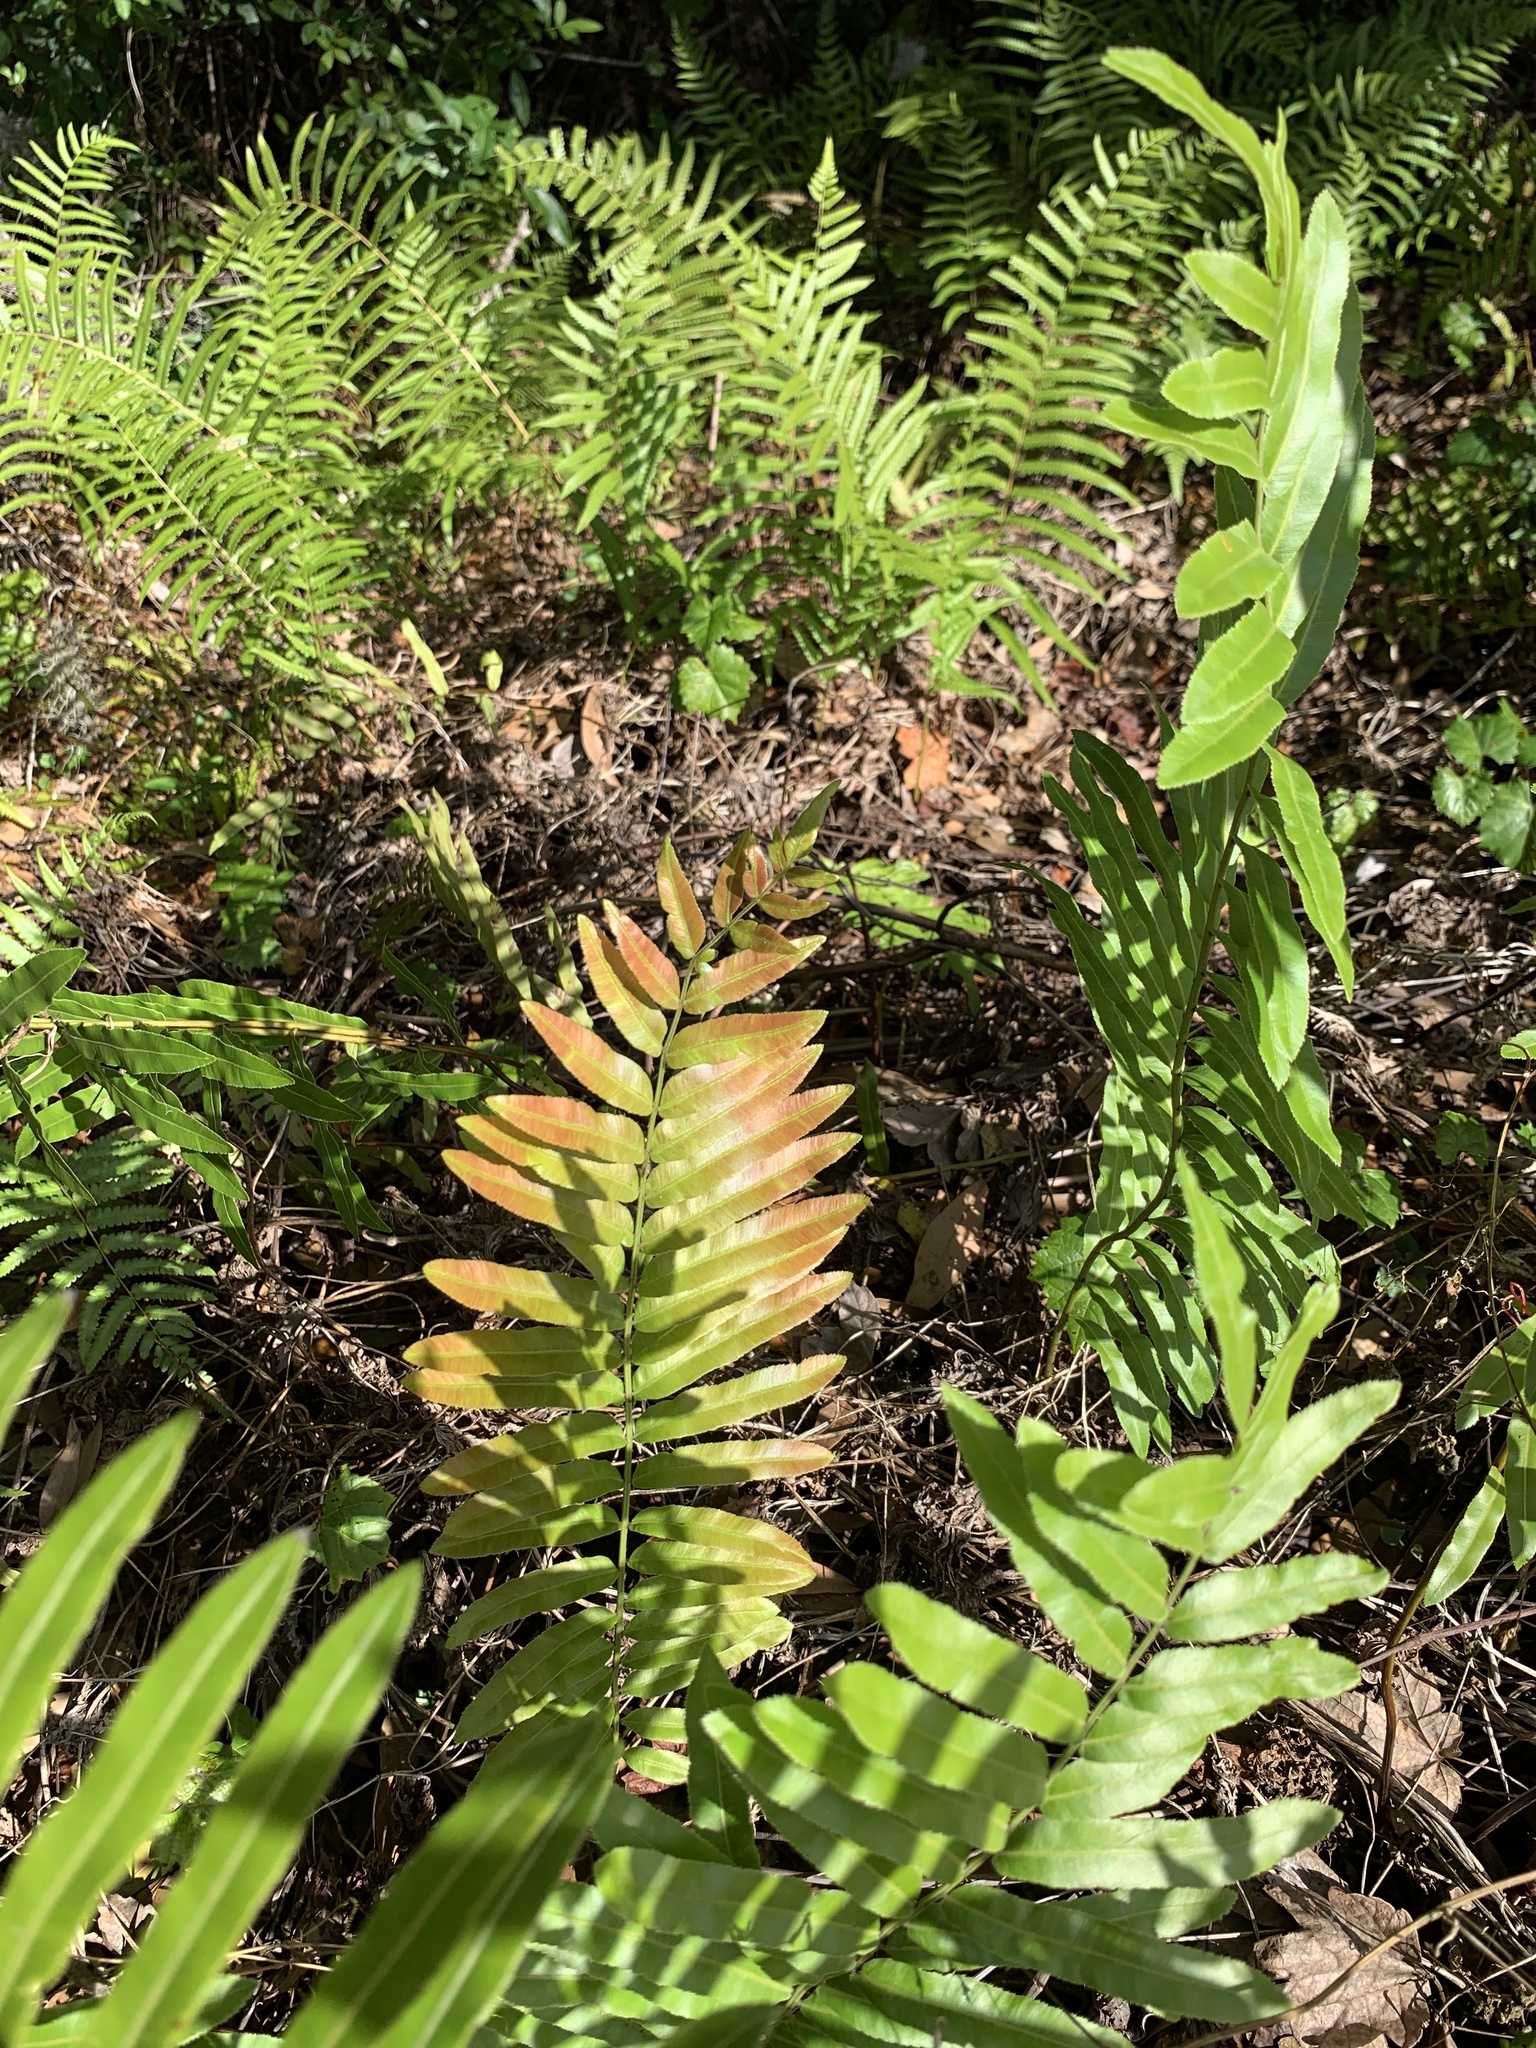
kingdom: Plantae
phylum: Tracheophyta
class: Polypodiopsida
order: Polypodiales
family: Blechnaceae
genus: Telmatoblechnum
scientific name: Telmatoblechnum serrulatum
